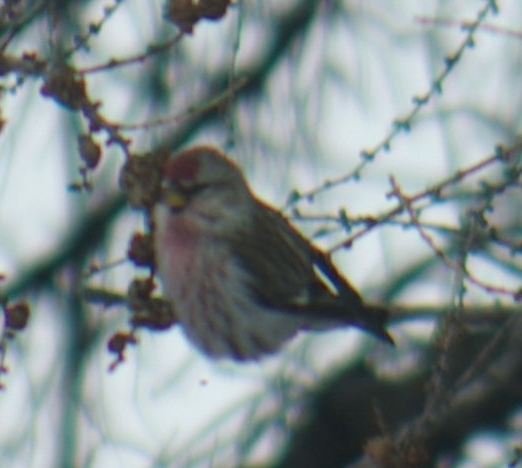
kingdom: Animalia
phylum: Chordata
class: Aves
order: Passeriformes
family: Fringillidae
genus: Acanthis
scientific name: Acanthis flammea
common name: Common redpoll
